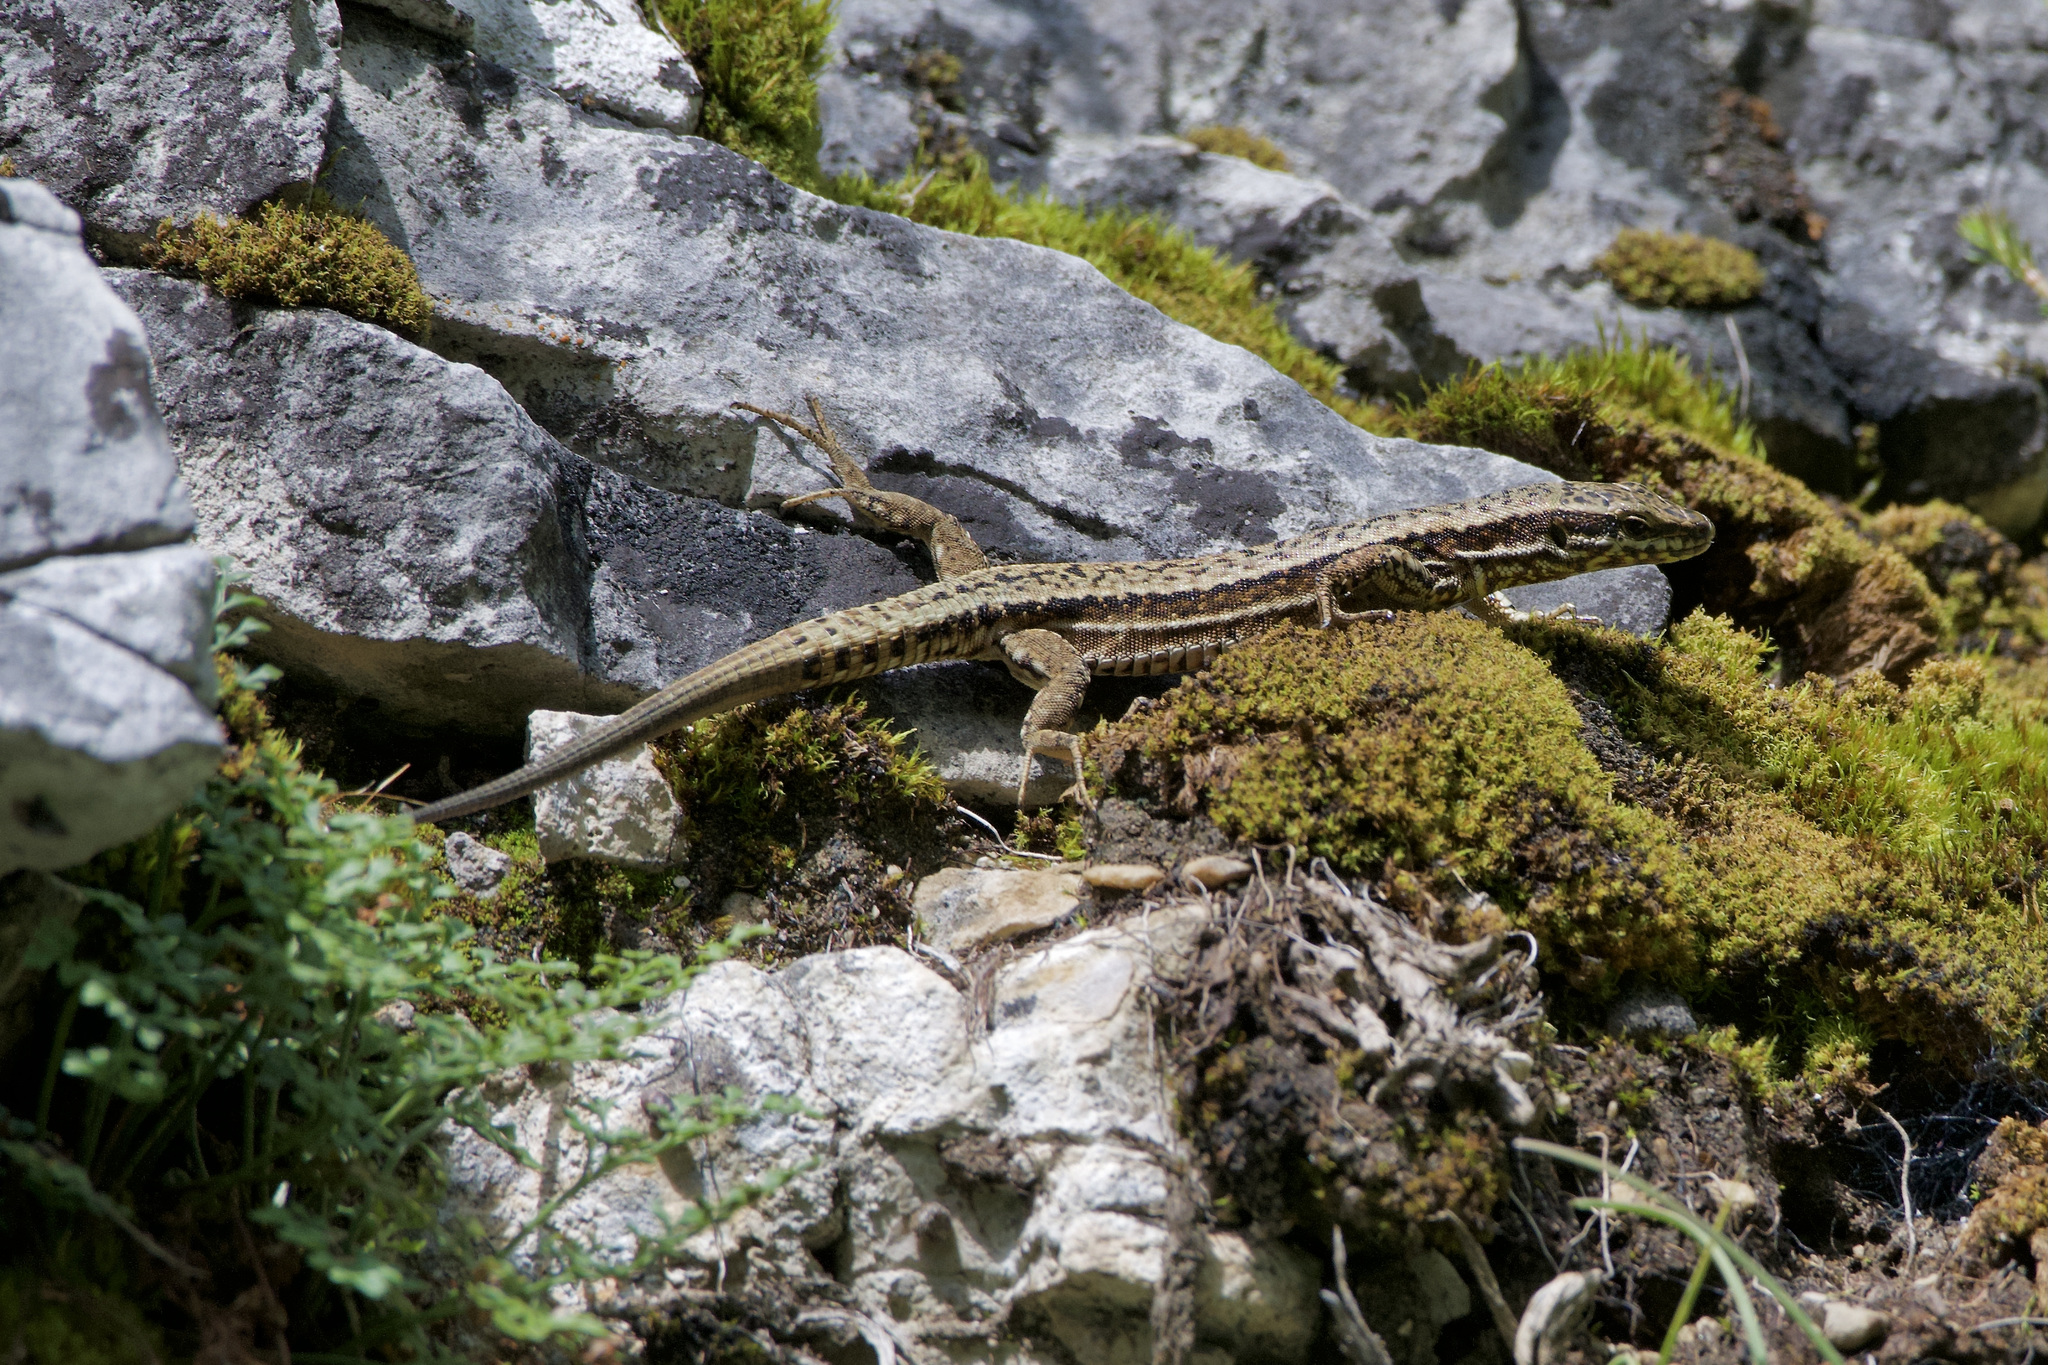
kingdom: Animalia
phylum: Chordata
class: Squamata
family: Lacertidae
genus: Podarcis
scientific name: Podarcis muralis
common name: Common wall lizard
